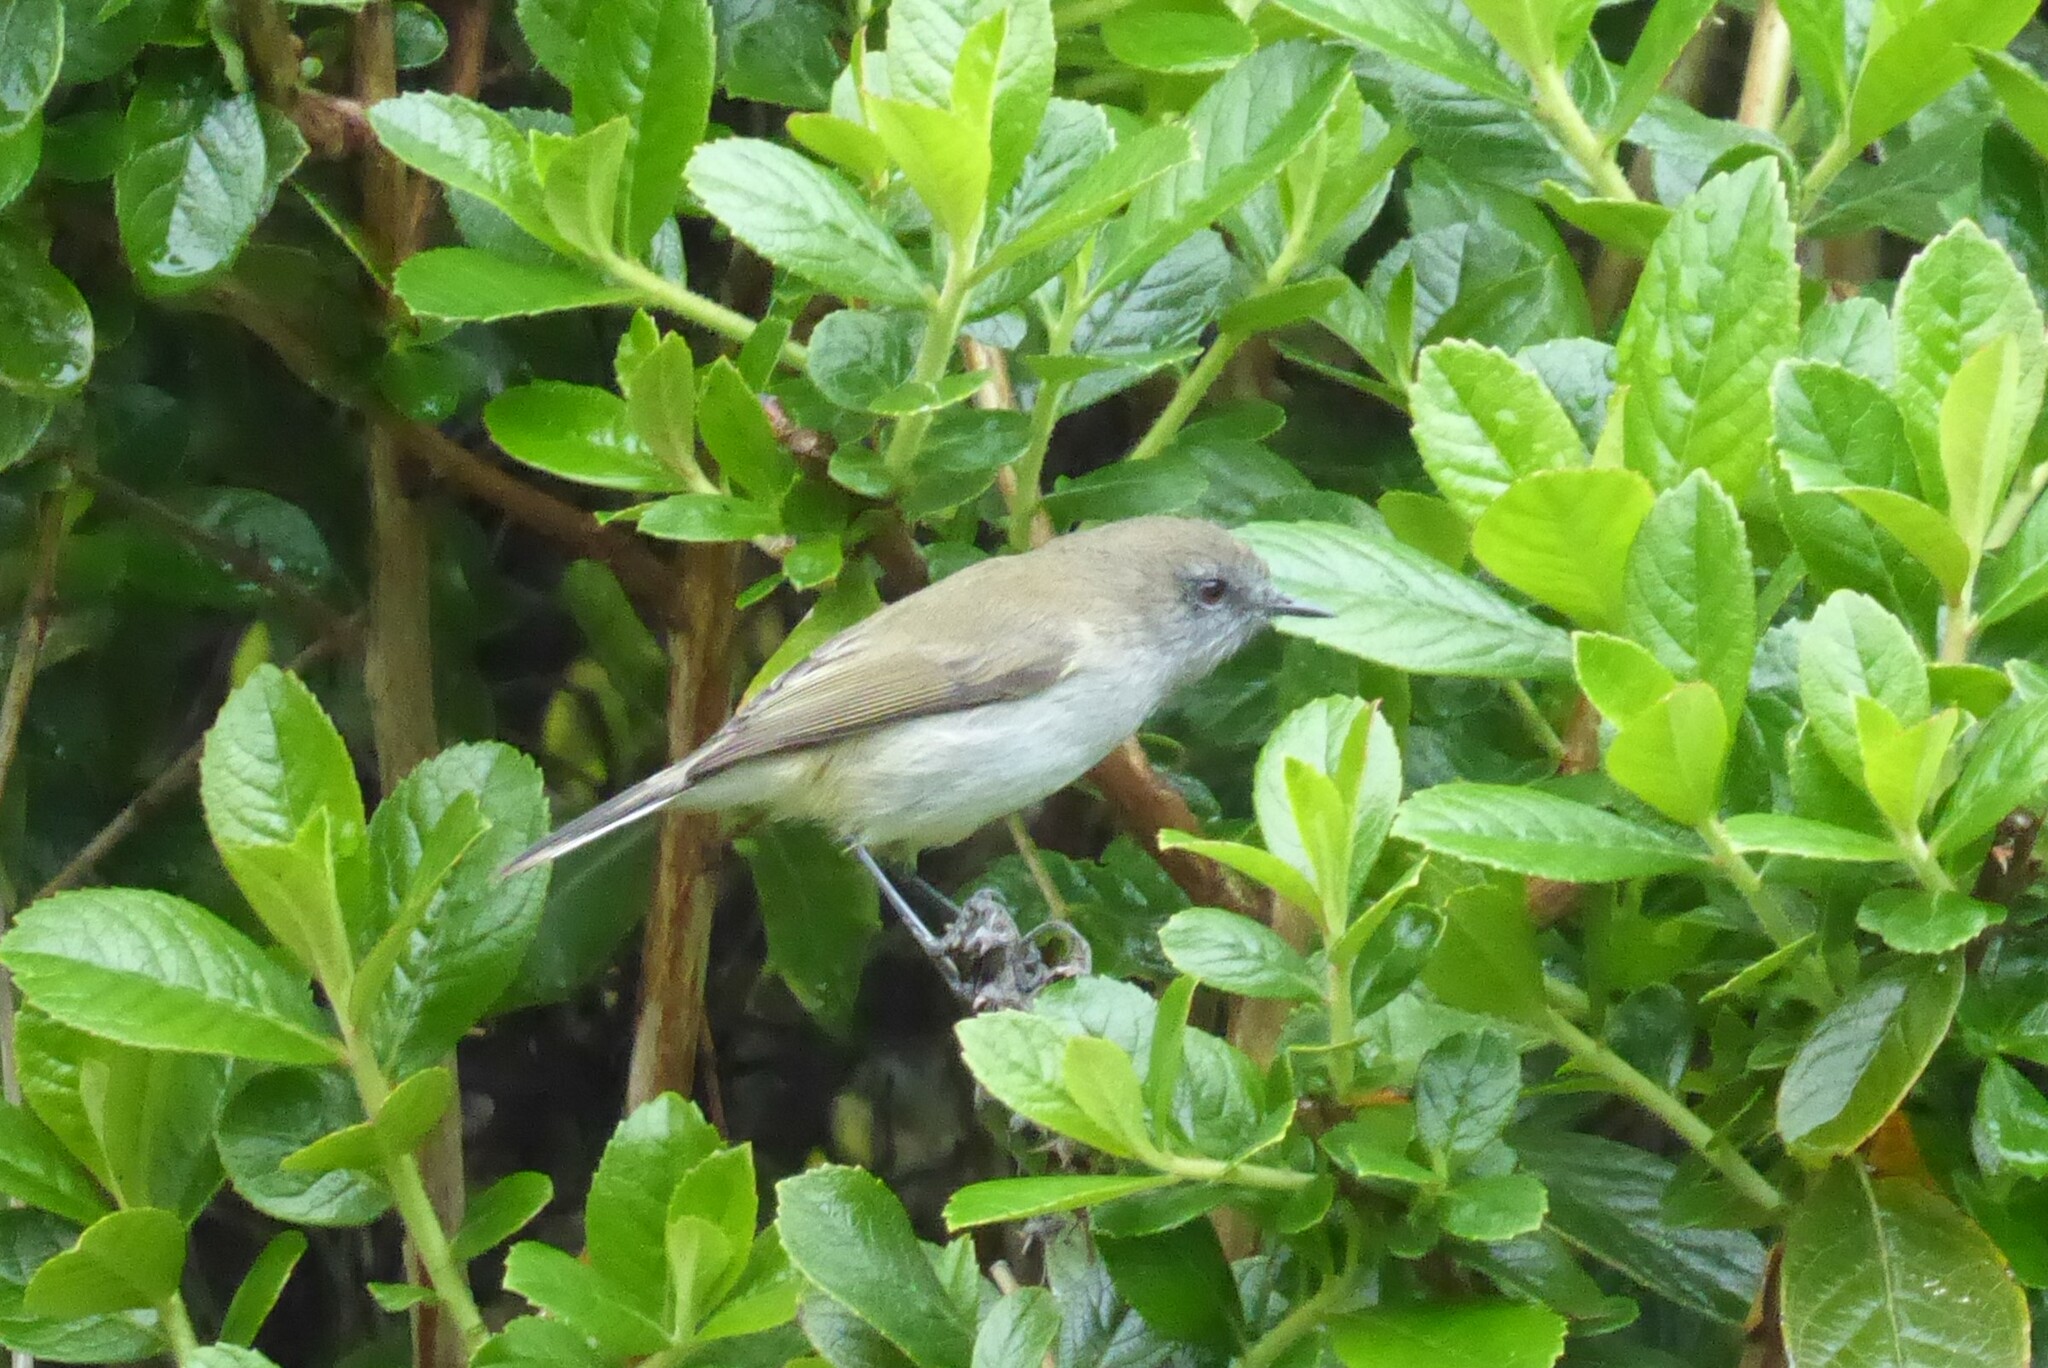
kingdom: Animalia
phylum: Chordata
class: Aves
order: Passeriformes
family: Acanthizidae
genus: Gerygone
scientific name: Gerygone igata
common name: Grey gerygone
